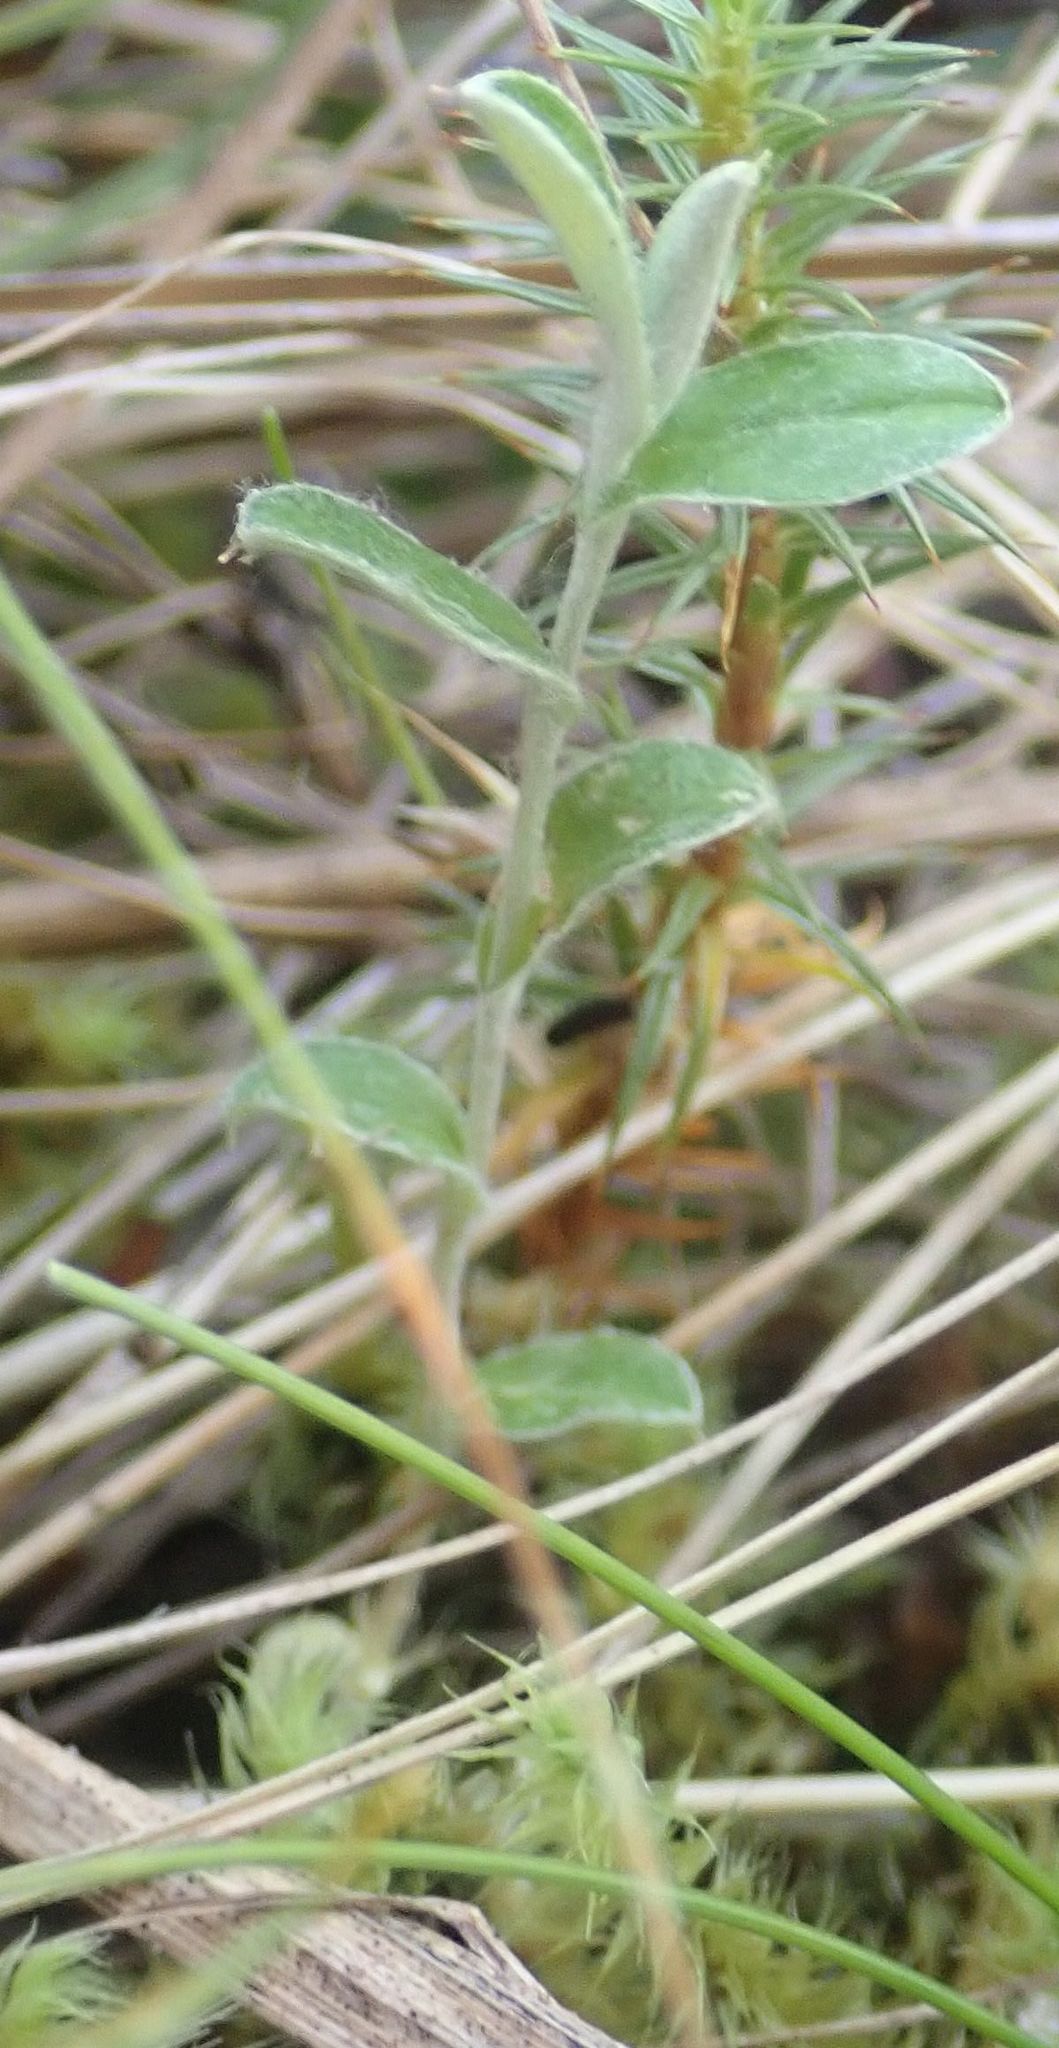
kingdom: Plantae
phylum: Tracheophyta
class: Magnoliopsida
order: Asterales
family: Asteraceae
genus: Helichrysum
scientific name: Helichrysum filicaule
